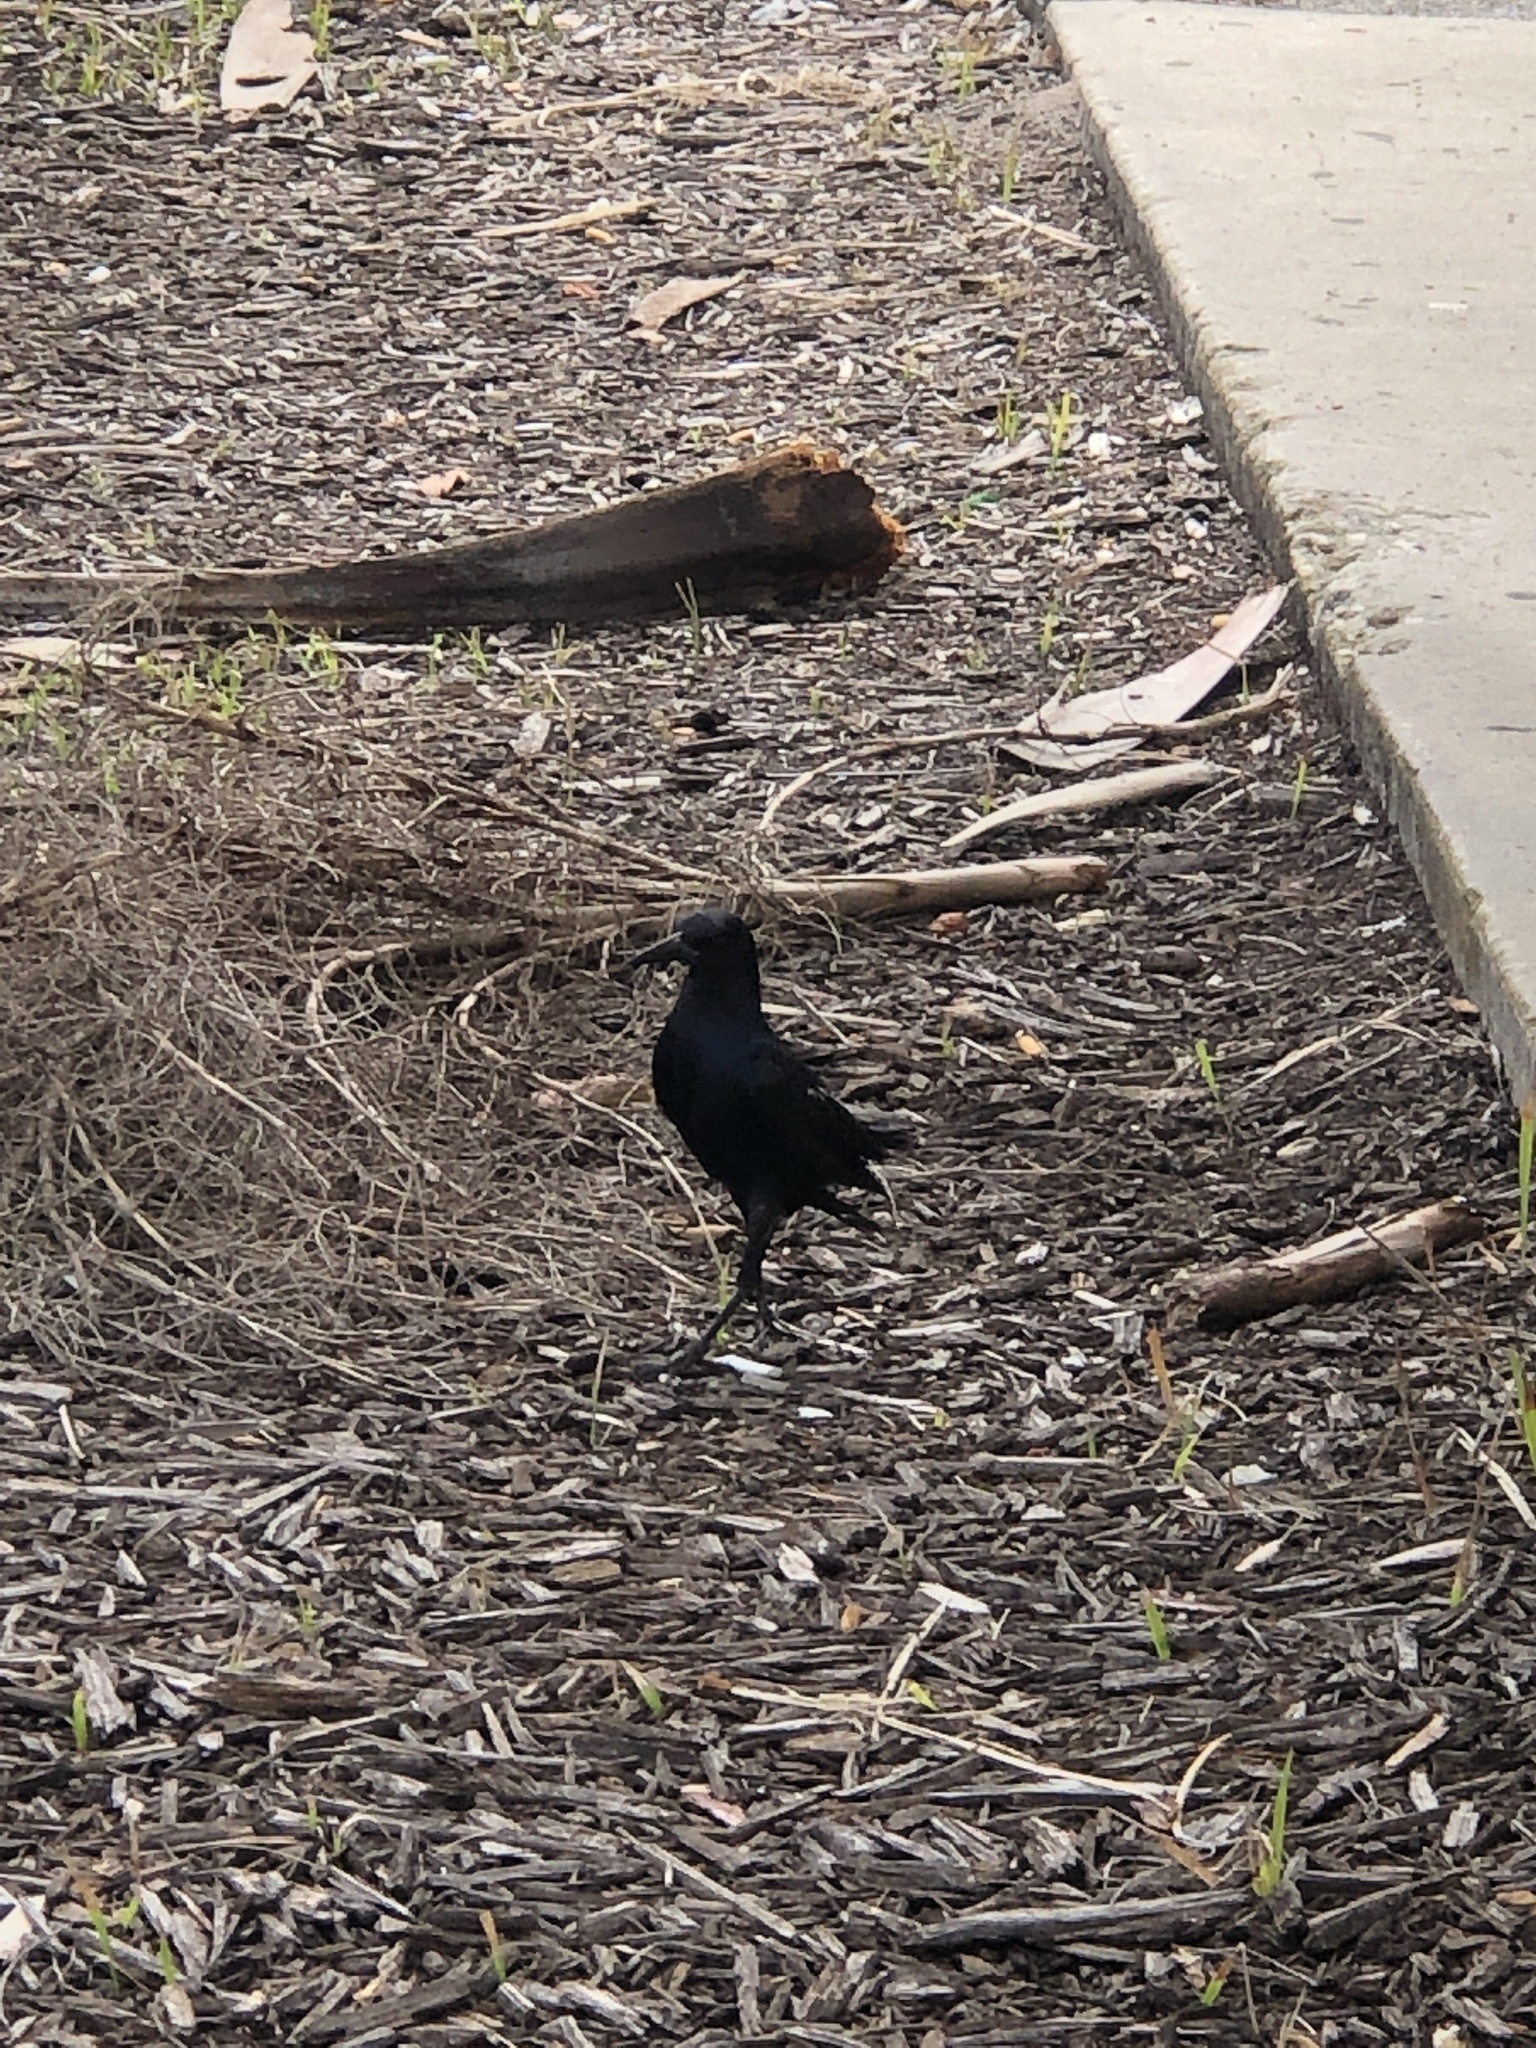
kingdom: Animalia
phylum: Chordata
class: Aves
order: Passeriformes
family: Icteridae
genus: Quiscalus
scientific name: Quiscalus major
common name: Boat-tailed grackle
